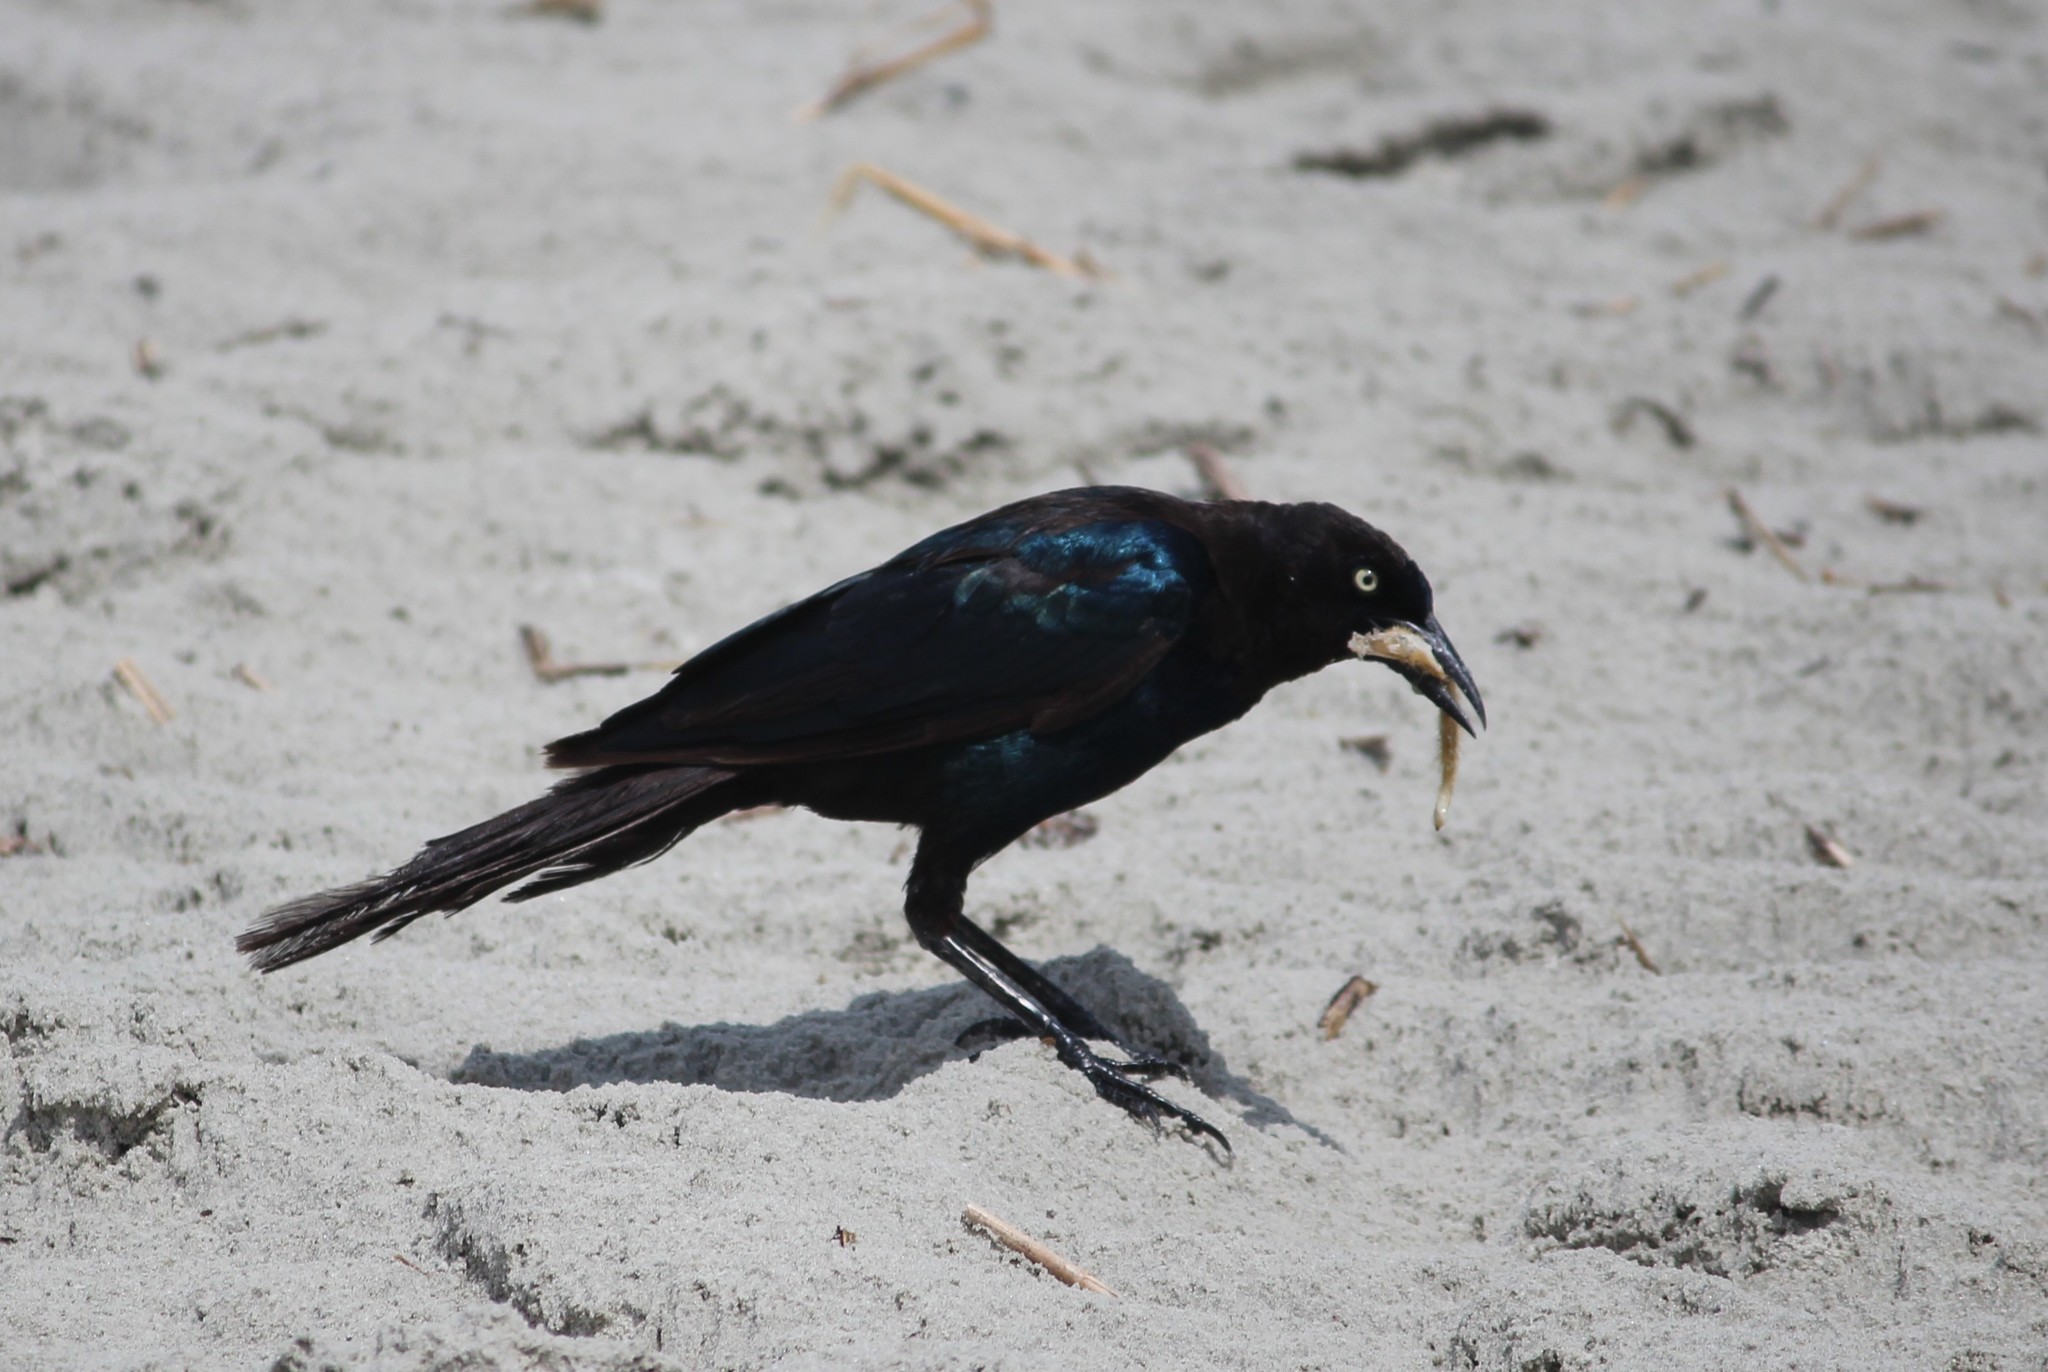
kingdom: Animalia
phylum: Chordata
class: Aves
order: Passeriformes
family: Icteridae
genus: Quiscalus
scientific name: Quiscalus major
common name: Boat-tailed grackle
